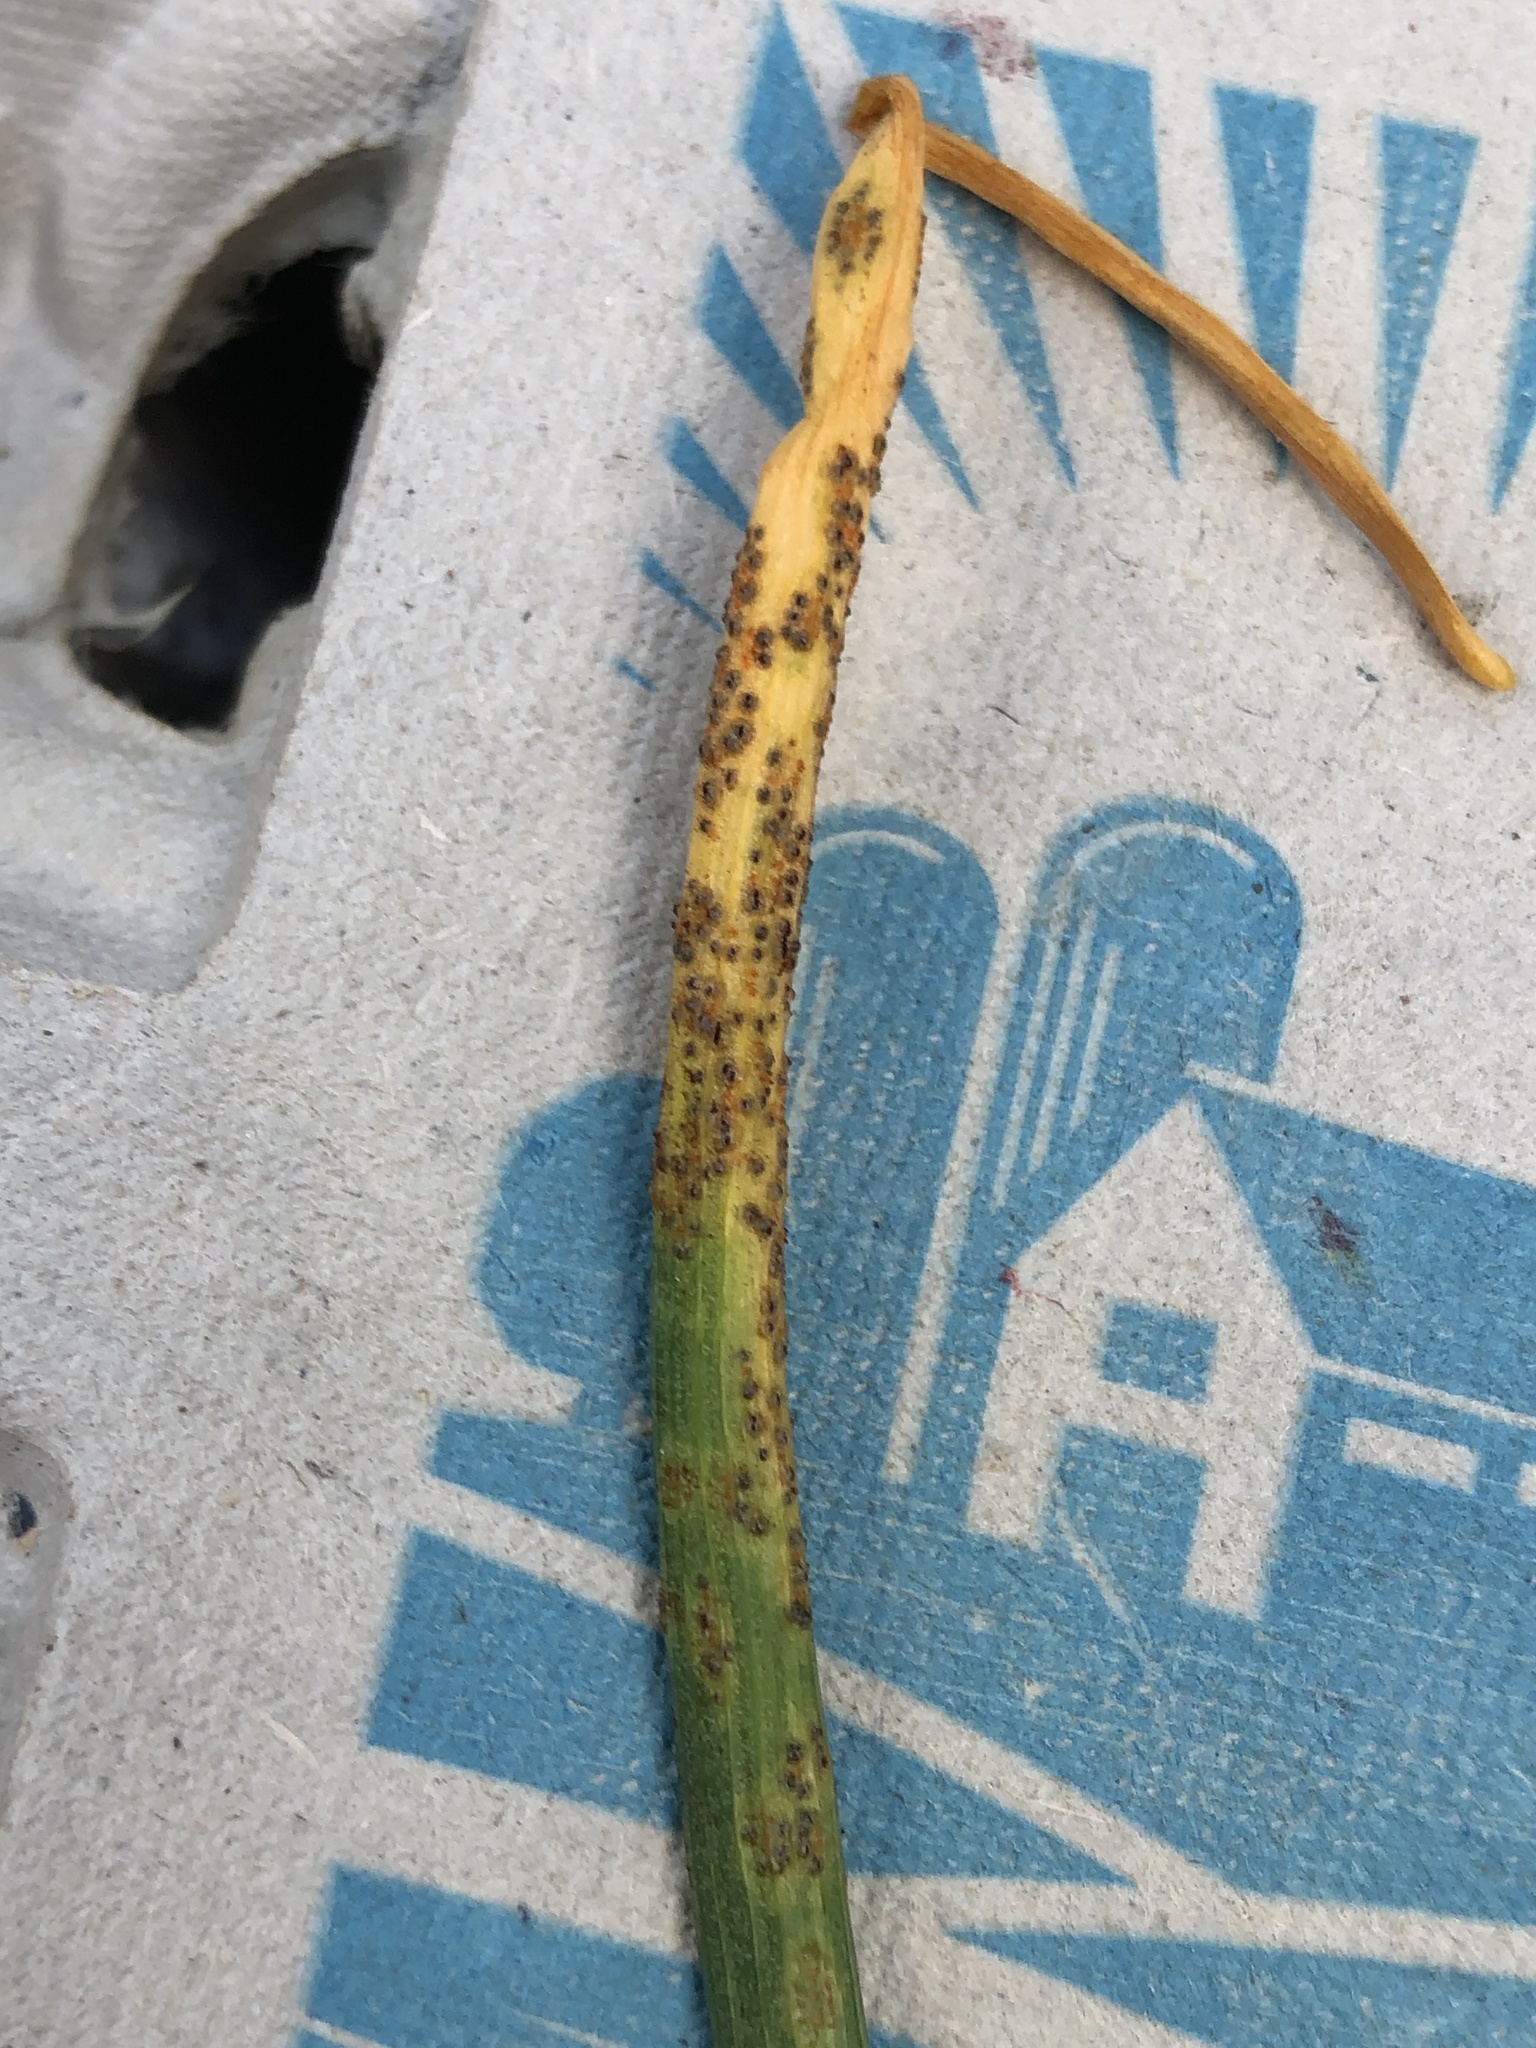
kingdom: Fungi
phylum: Basidiomycota
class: Pucciniomycetes
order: Pucciniales
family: Pucciniaceae
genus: Puccinia
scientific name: Puccinia liliacearum
